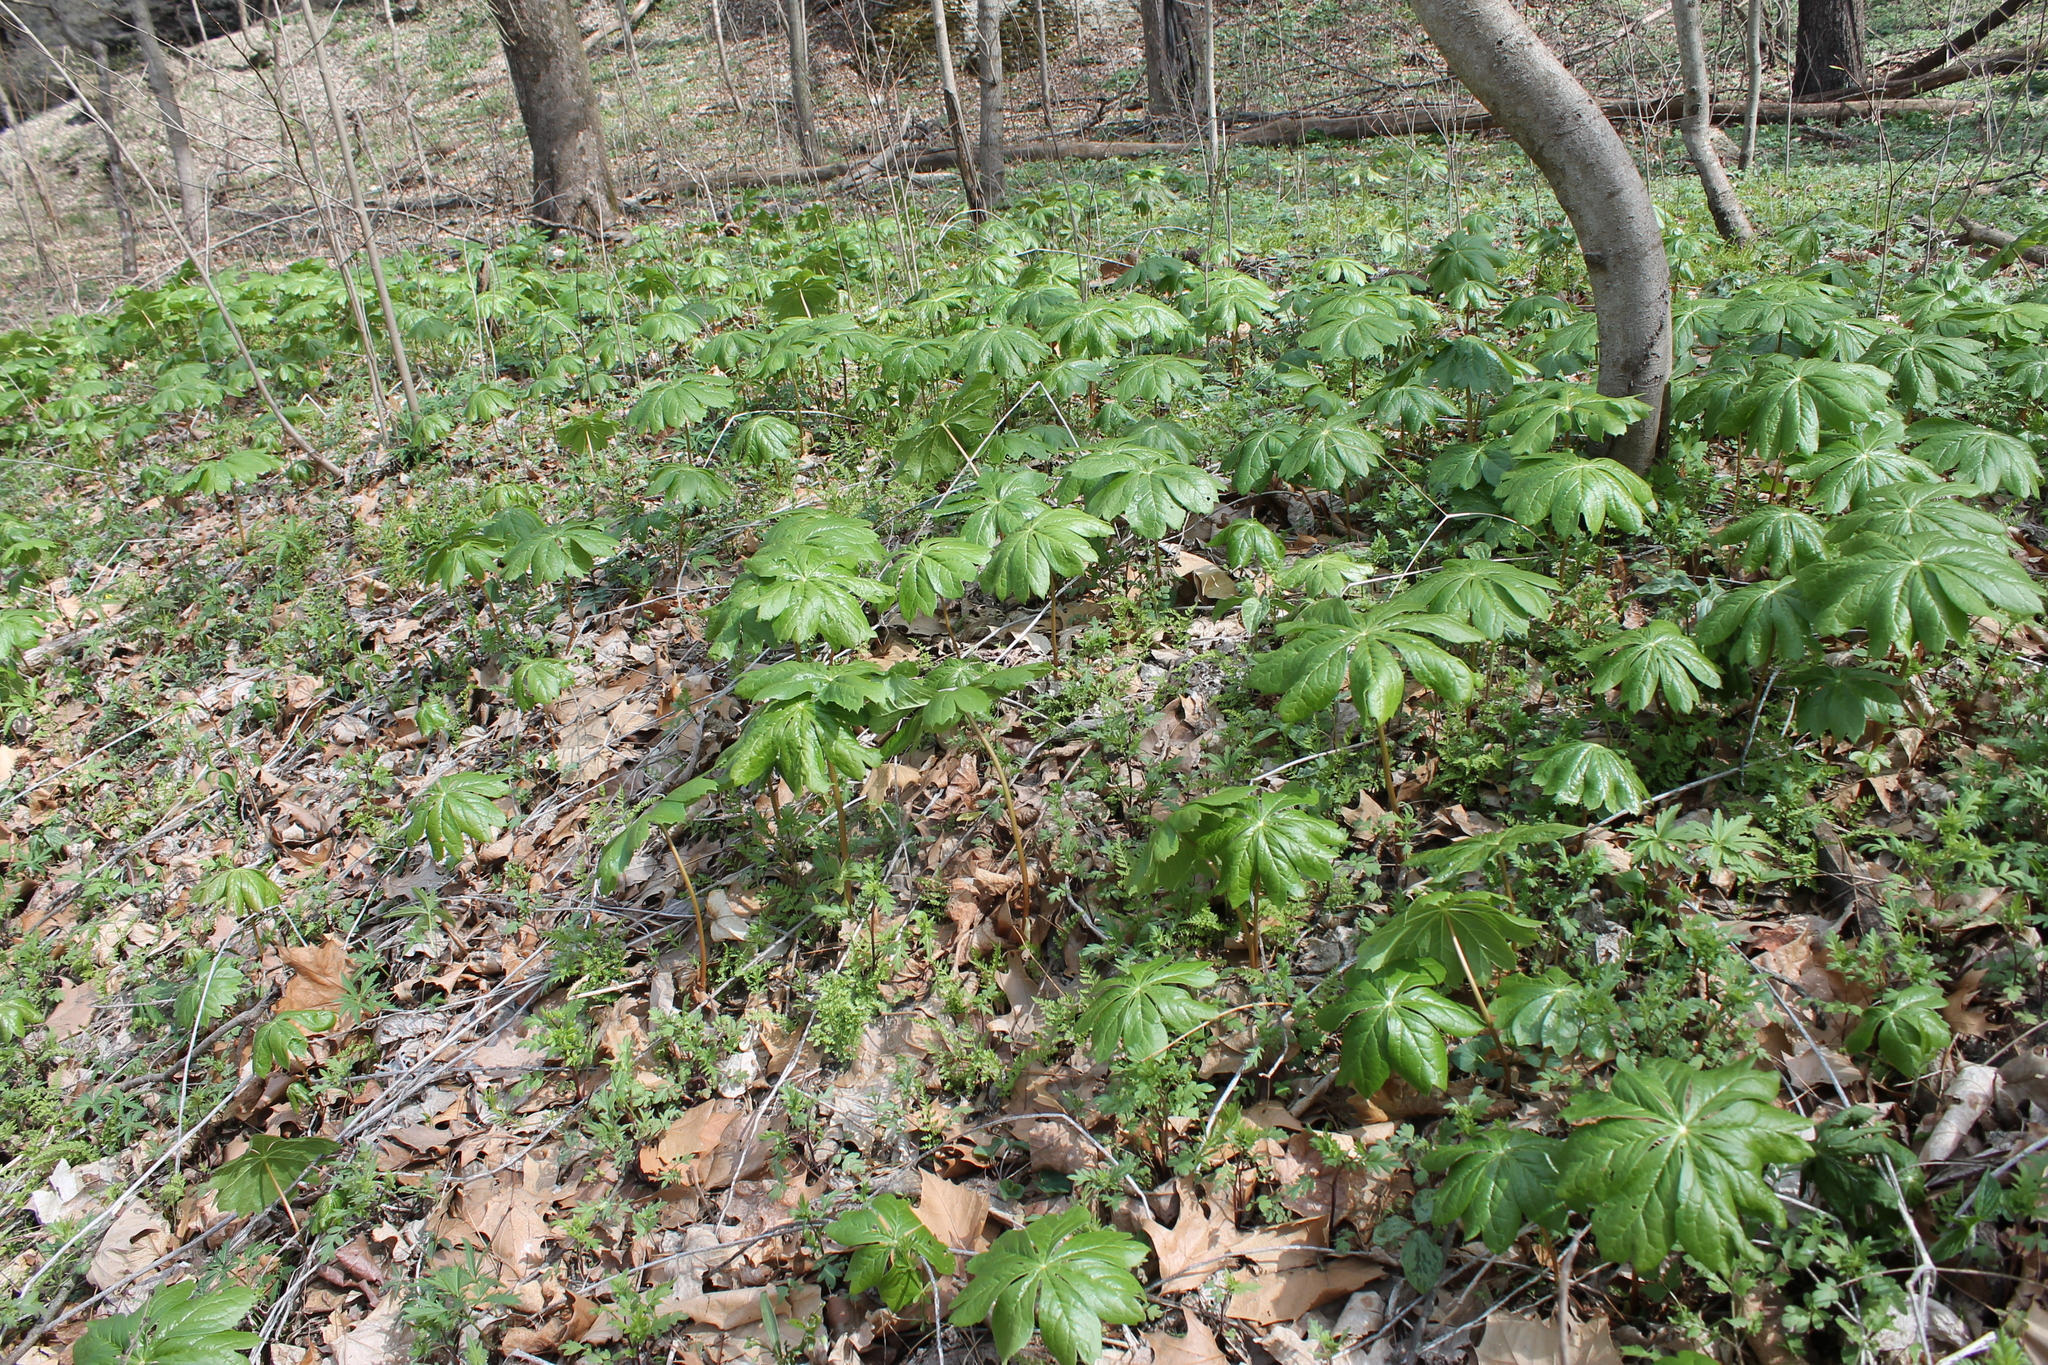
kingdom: Plantae
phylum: Tracheophyta
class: Magnoliopsida
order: Ranunculales
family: Berberidaceae
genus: Podophyllum
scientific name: Podophyllum peltatum
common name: Wild mandrake
